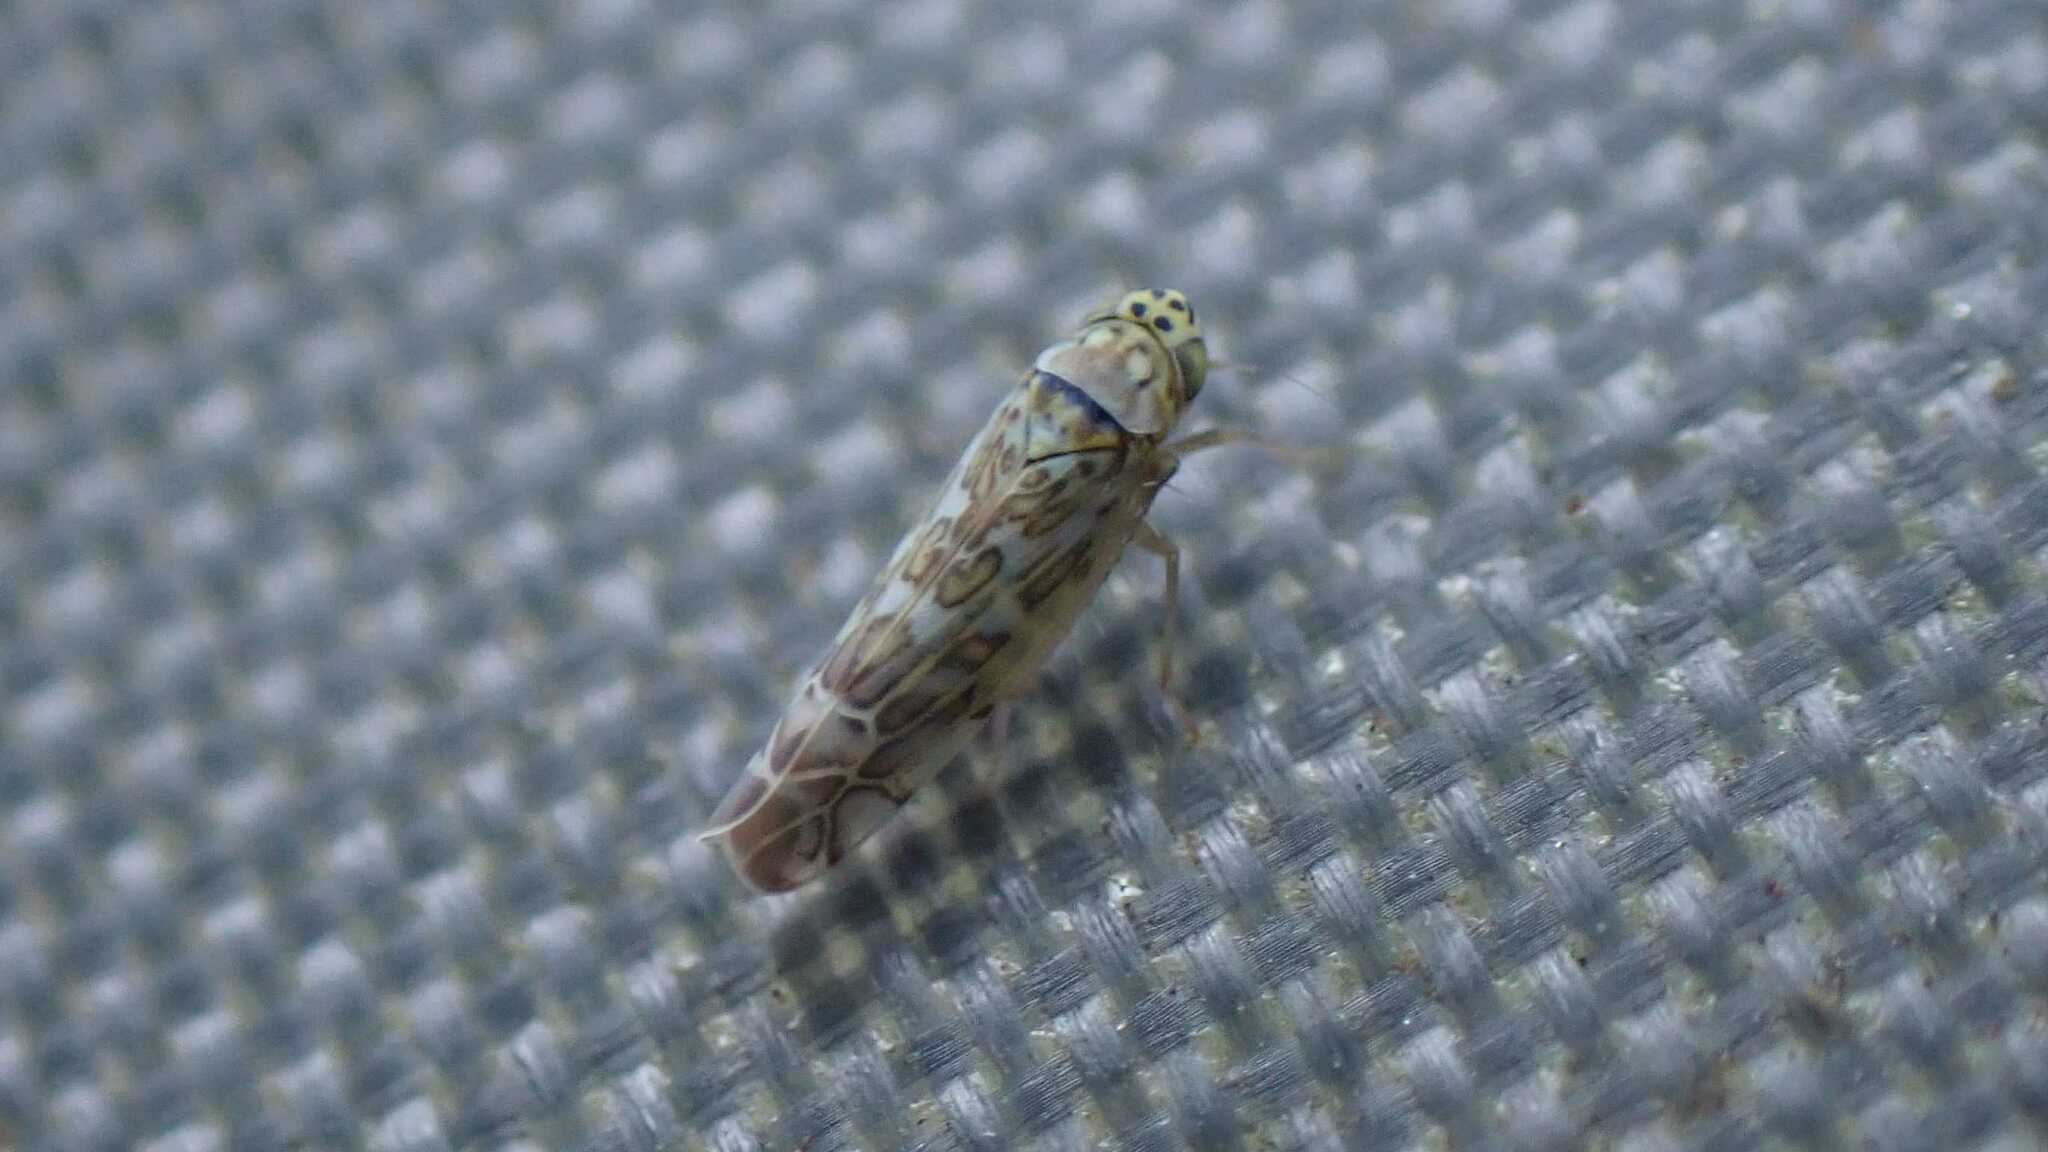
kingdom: Animalia
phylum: Arthropoda
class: Insecta
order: Hemiptera
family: Cicadellidae
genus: Eupteryx
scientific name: Eupteryx decemnotata
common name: Ligurian leafhopper
